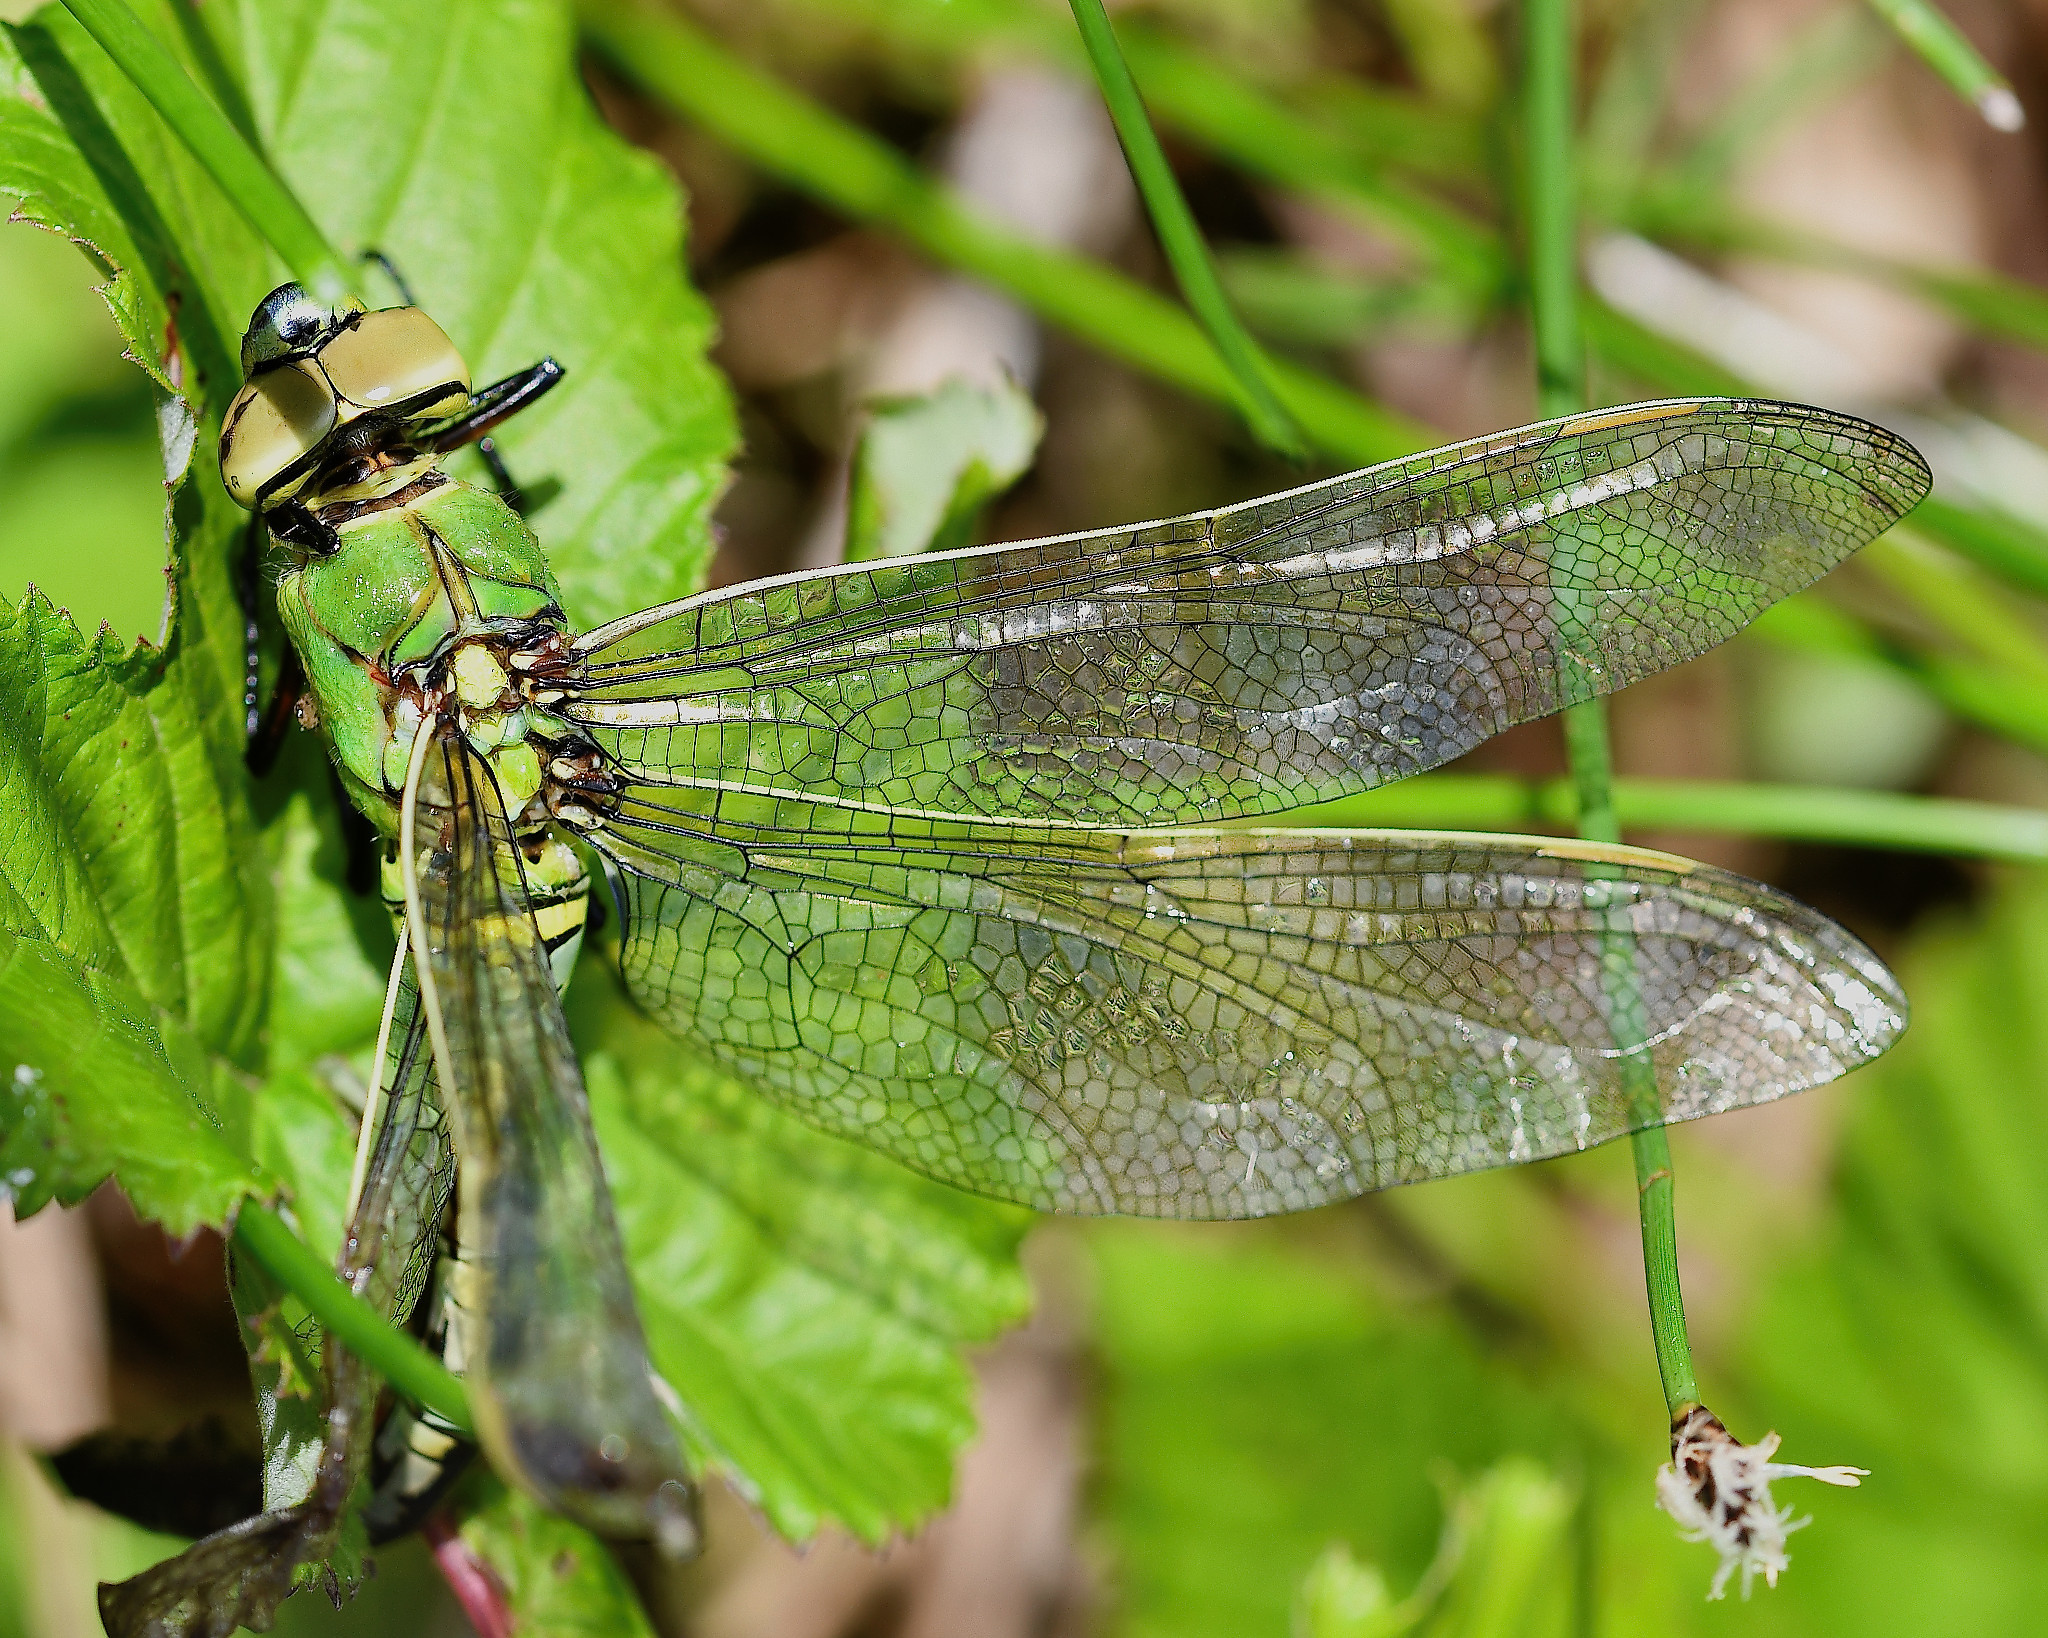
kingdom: Animalia
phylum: Arthropoda
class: Insecta
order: Odonata
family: Aeshnidae
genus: Anax
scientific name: Anax imperator
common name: Emperor dragonfly
